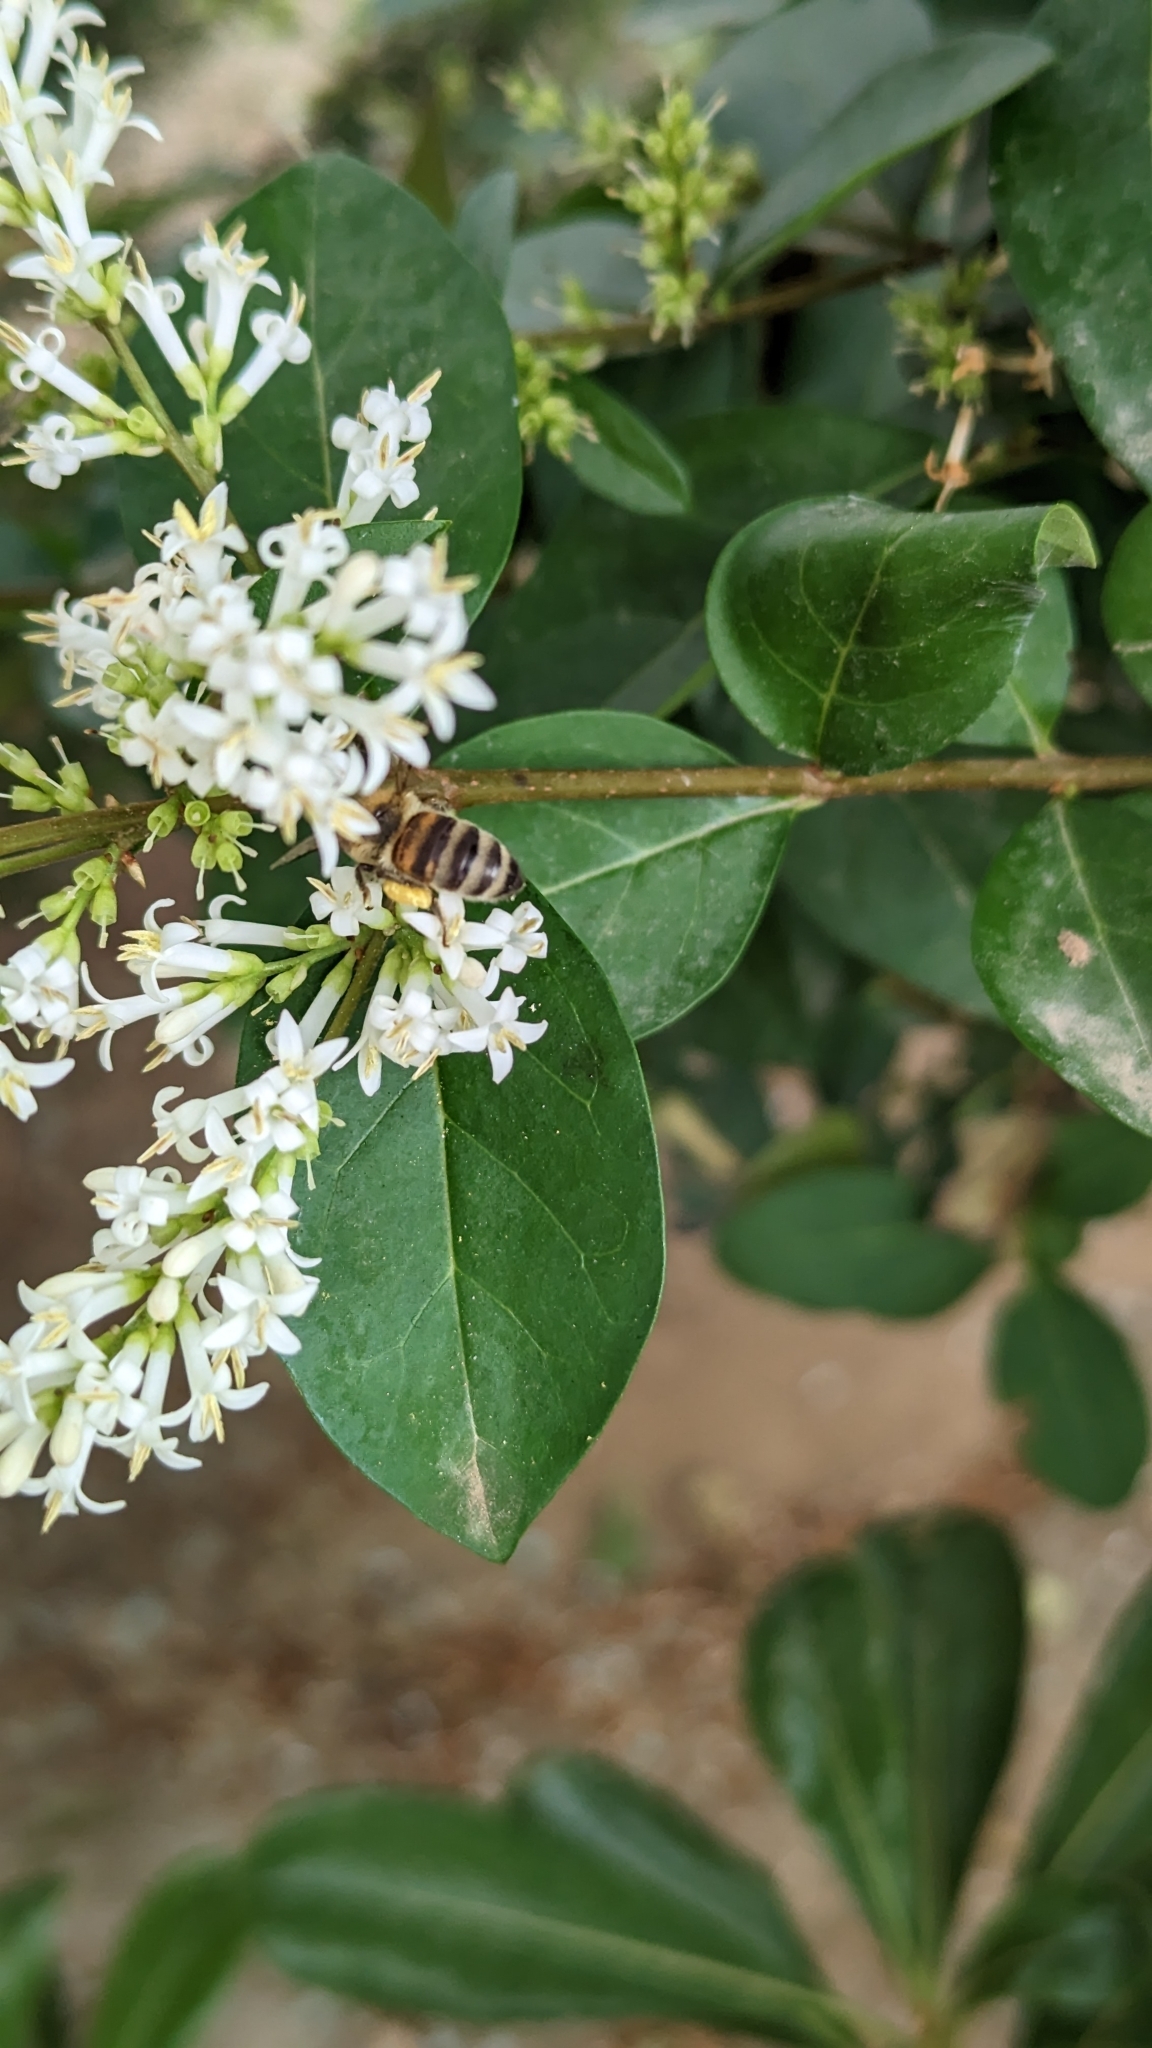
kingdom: Animalia
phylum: Arthropoda
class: Insecta
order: Hymenoptera
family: Apidae
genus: Apis
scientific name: Apis mellifera
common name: Honey bee
